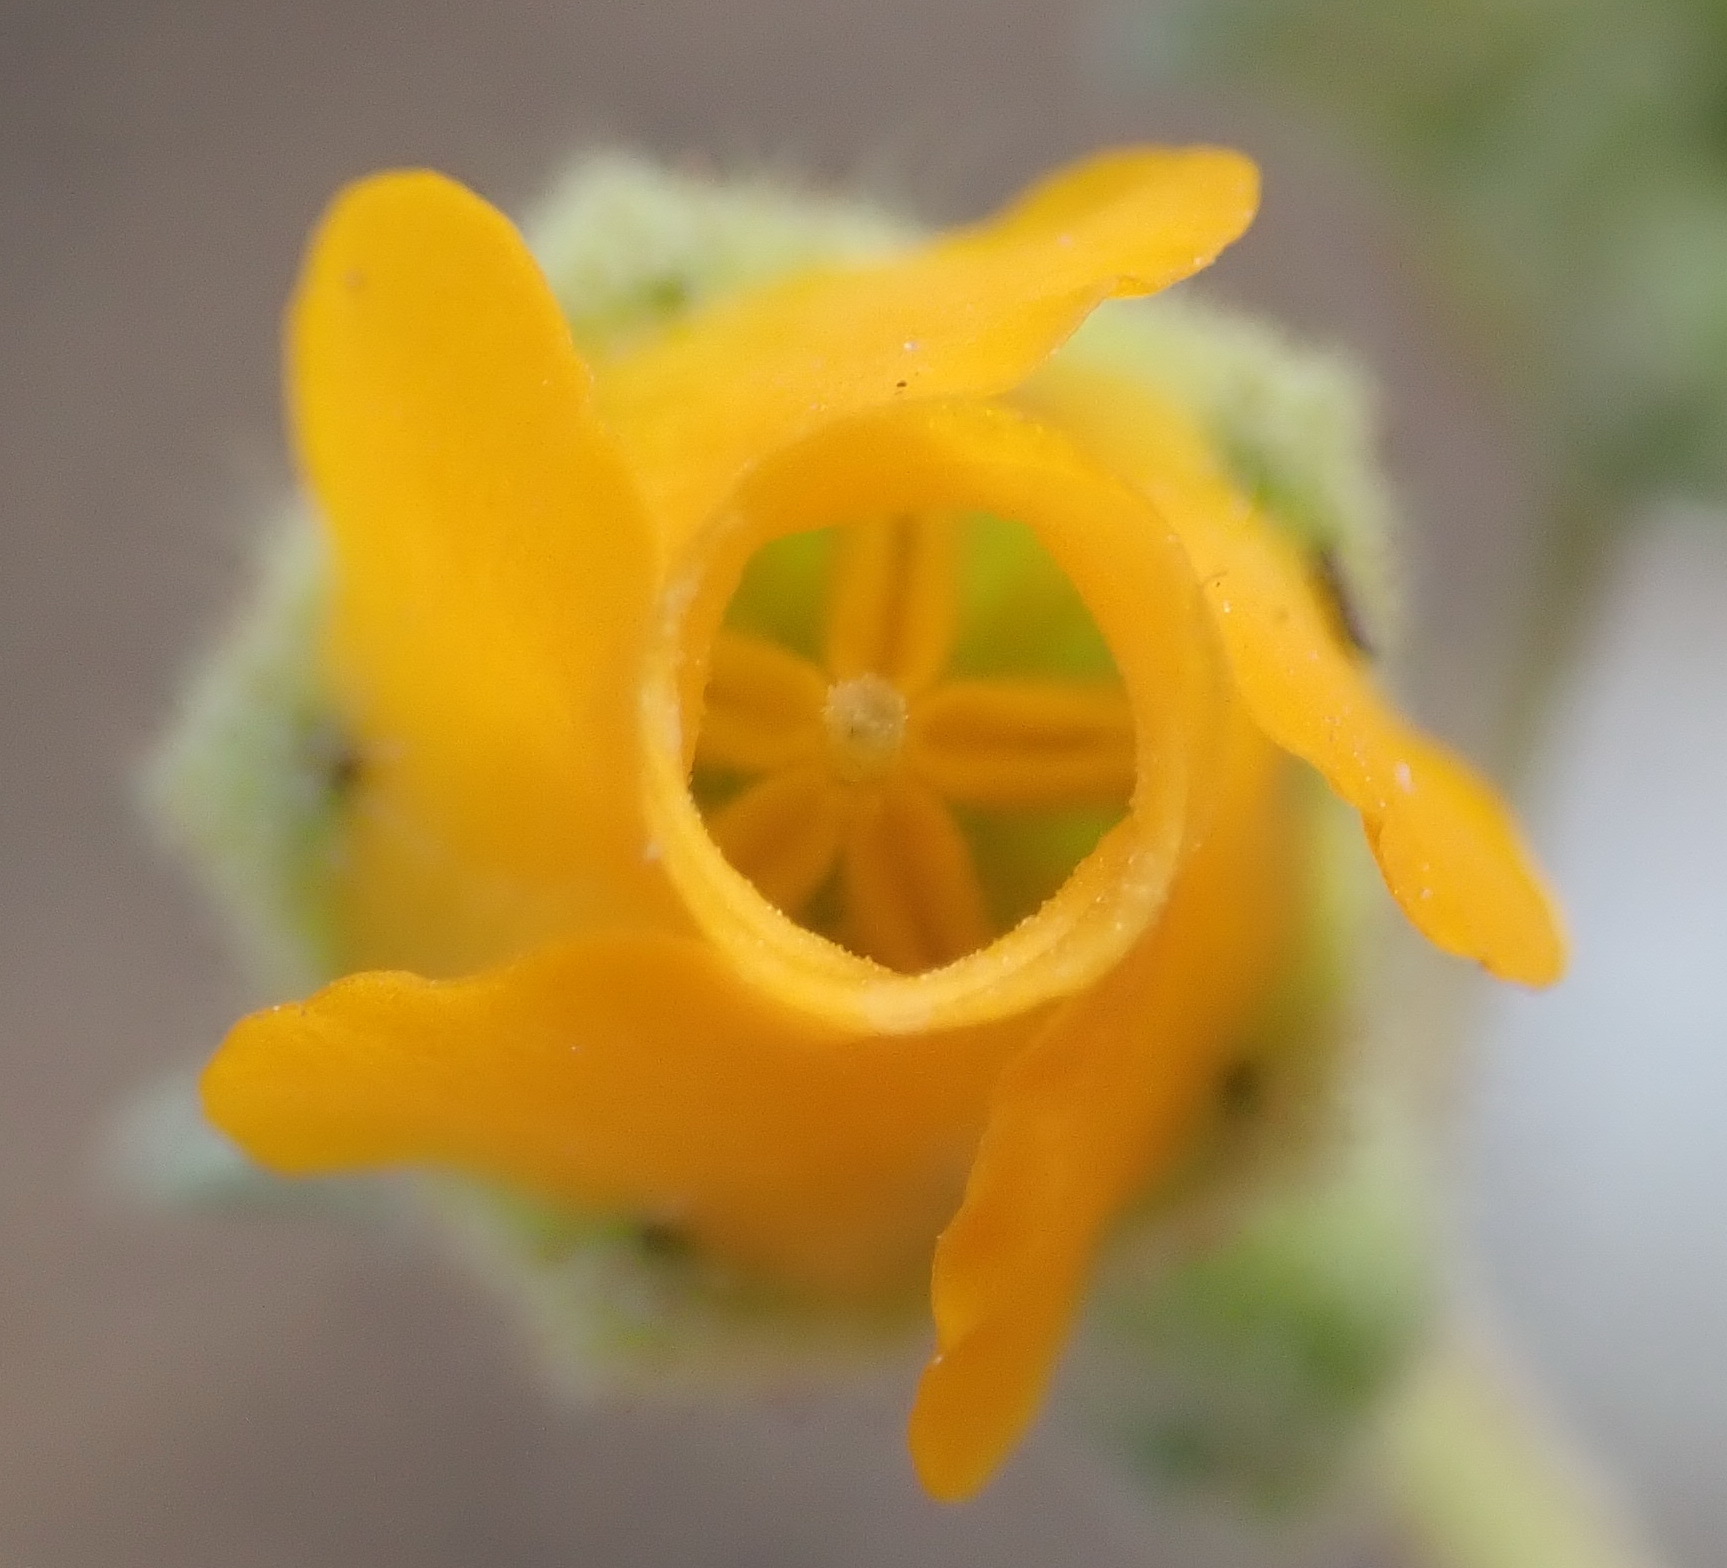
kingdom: Plantae
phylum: Tracheophyta
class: Magnoliopsida
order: Malvales
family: Malvaceae
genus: Hermannia
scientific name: Hermannia althaeifolia
